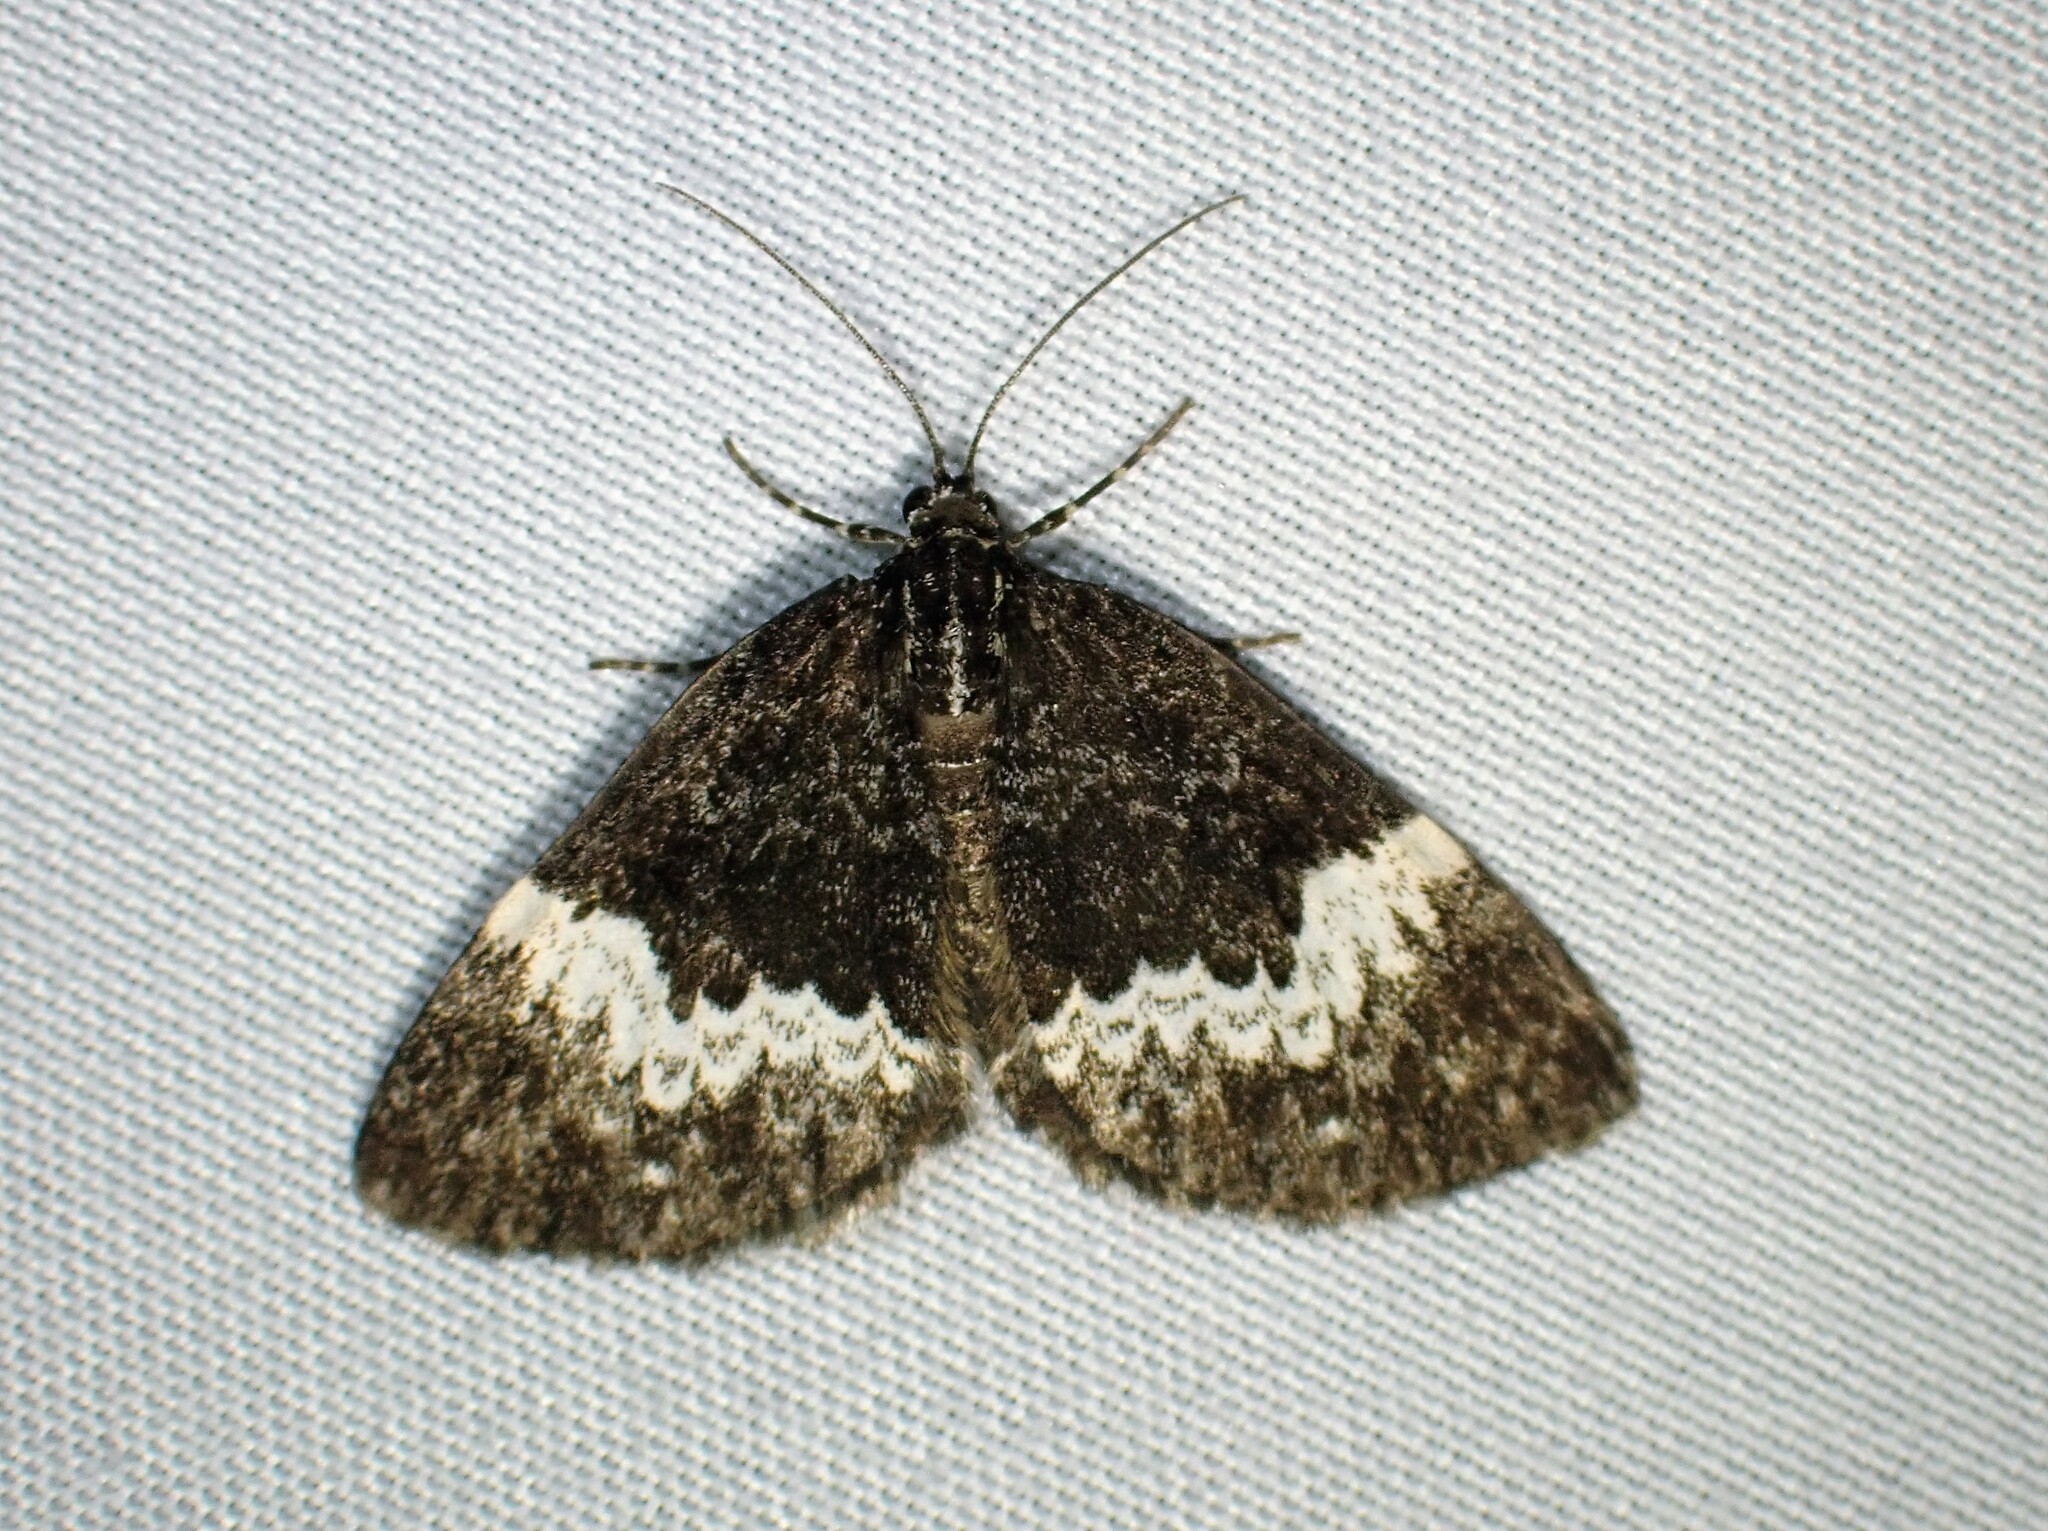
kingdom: Animalia
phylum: Arthropoda
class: Insecta
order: Lepidoptera
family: Geometridae
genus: Spargania
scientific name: Spargania luctuata
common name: White-banded carpet
